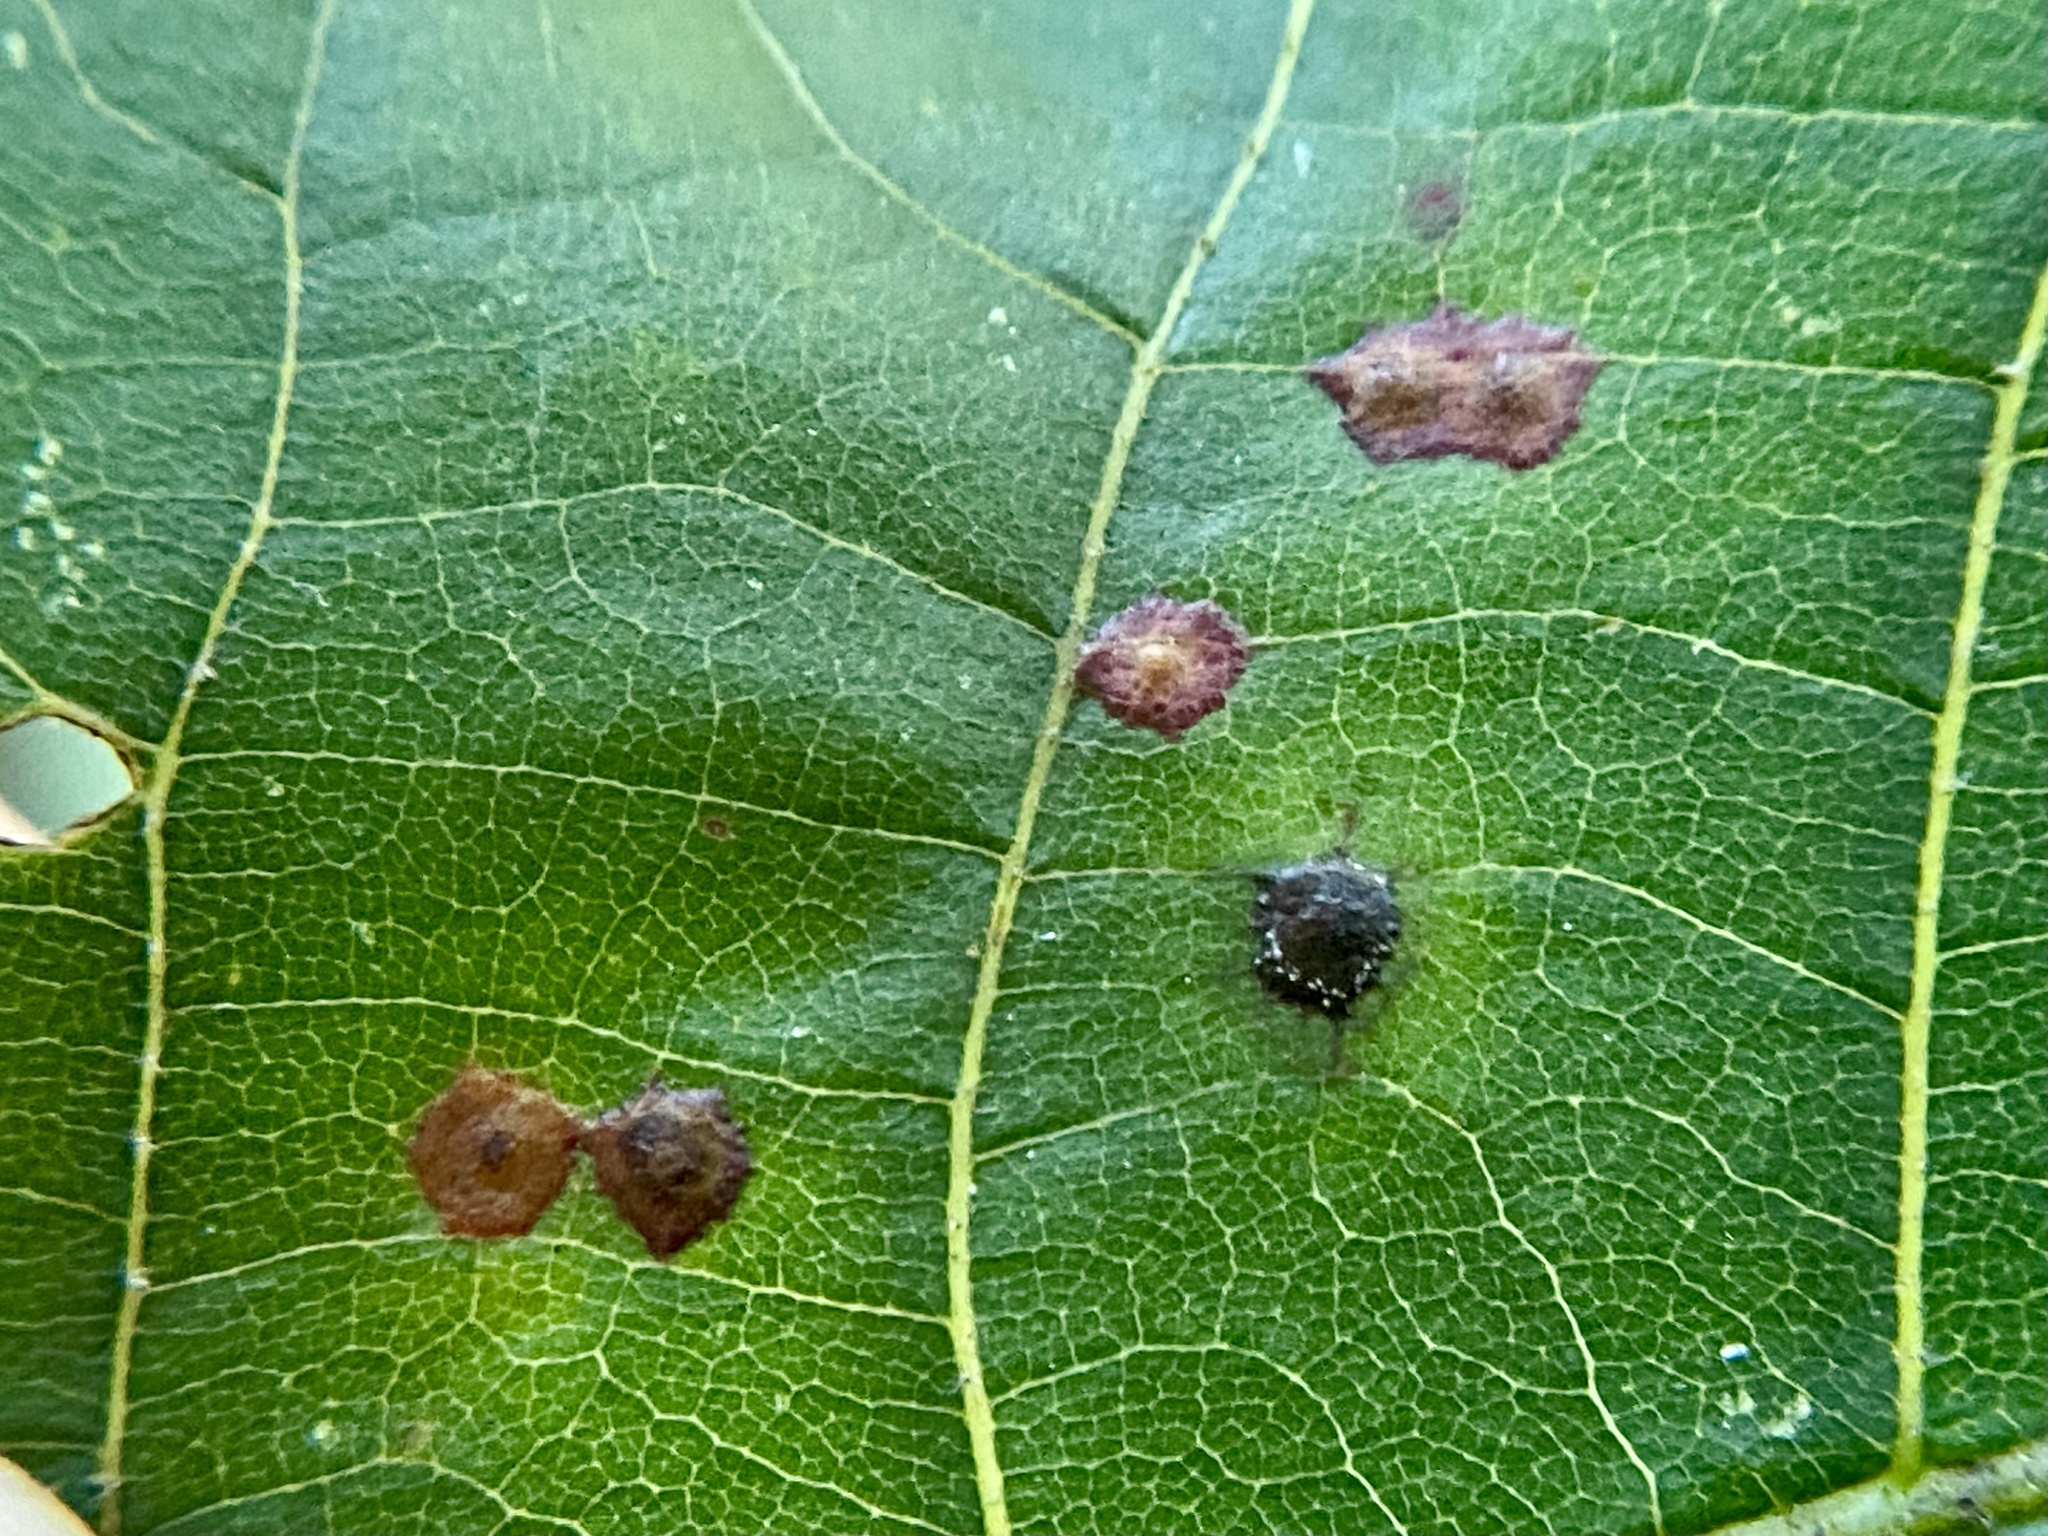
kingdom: Animalia
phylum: Arthropoda
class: Insecta
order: Diptera
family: Cecidomyiidae
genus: Caryomyia
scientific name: Caryomyia caryae
